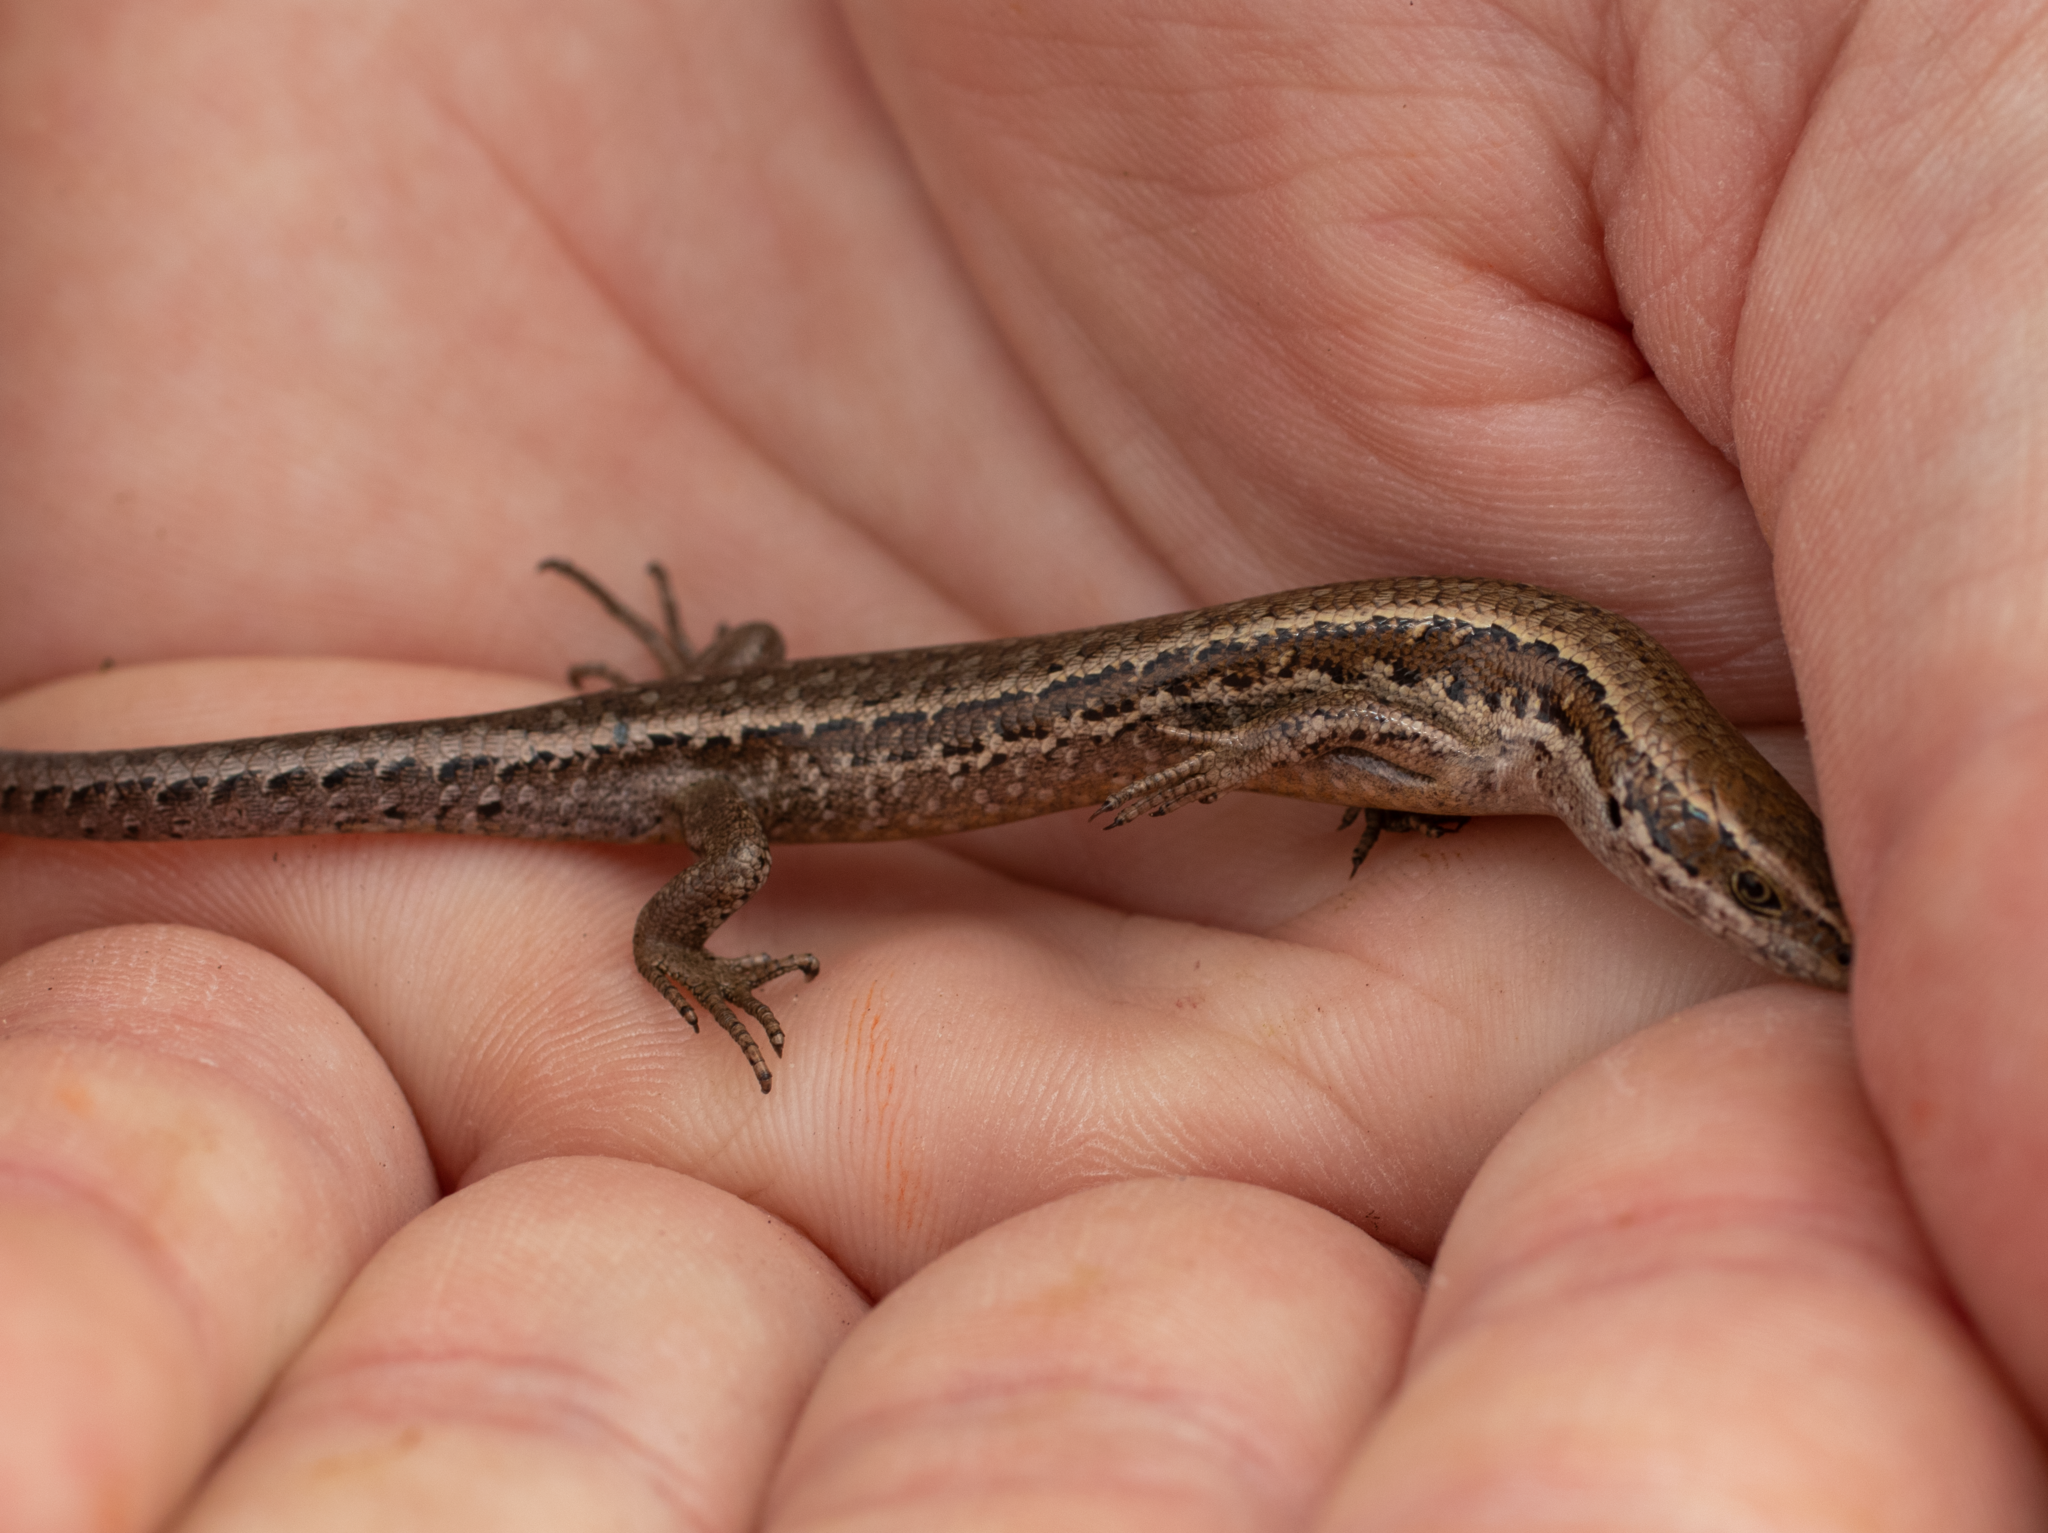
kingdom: Animalia
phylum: Chordata
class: Squamata
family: Scincidae
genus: Oligosoma
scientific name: Oligosoma polychroma
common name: Common new zealand skink
